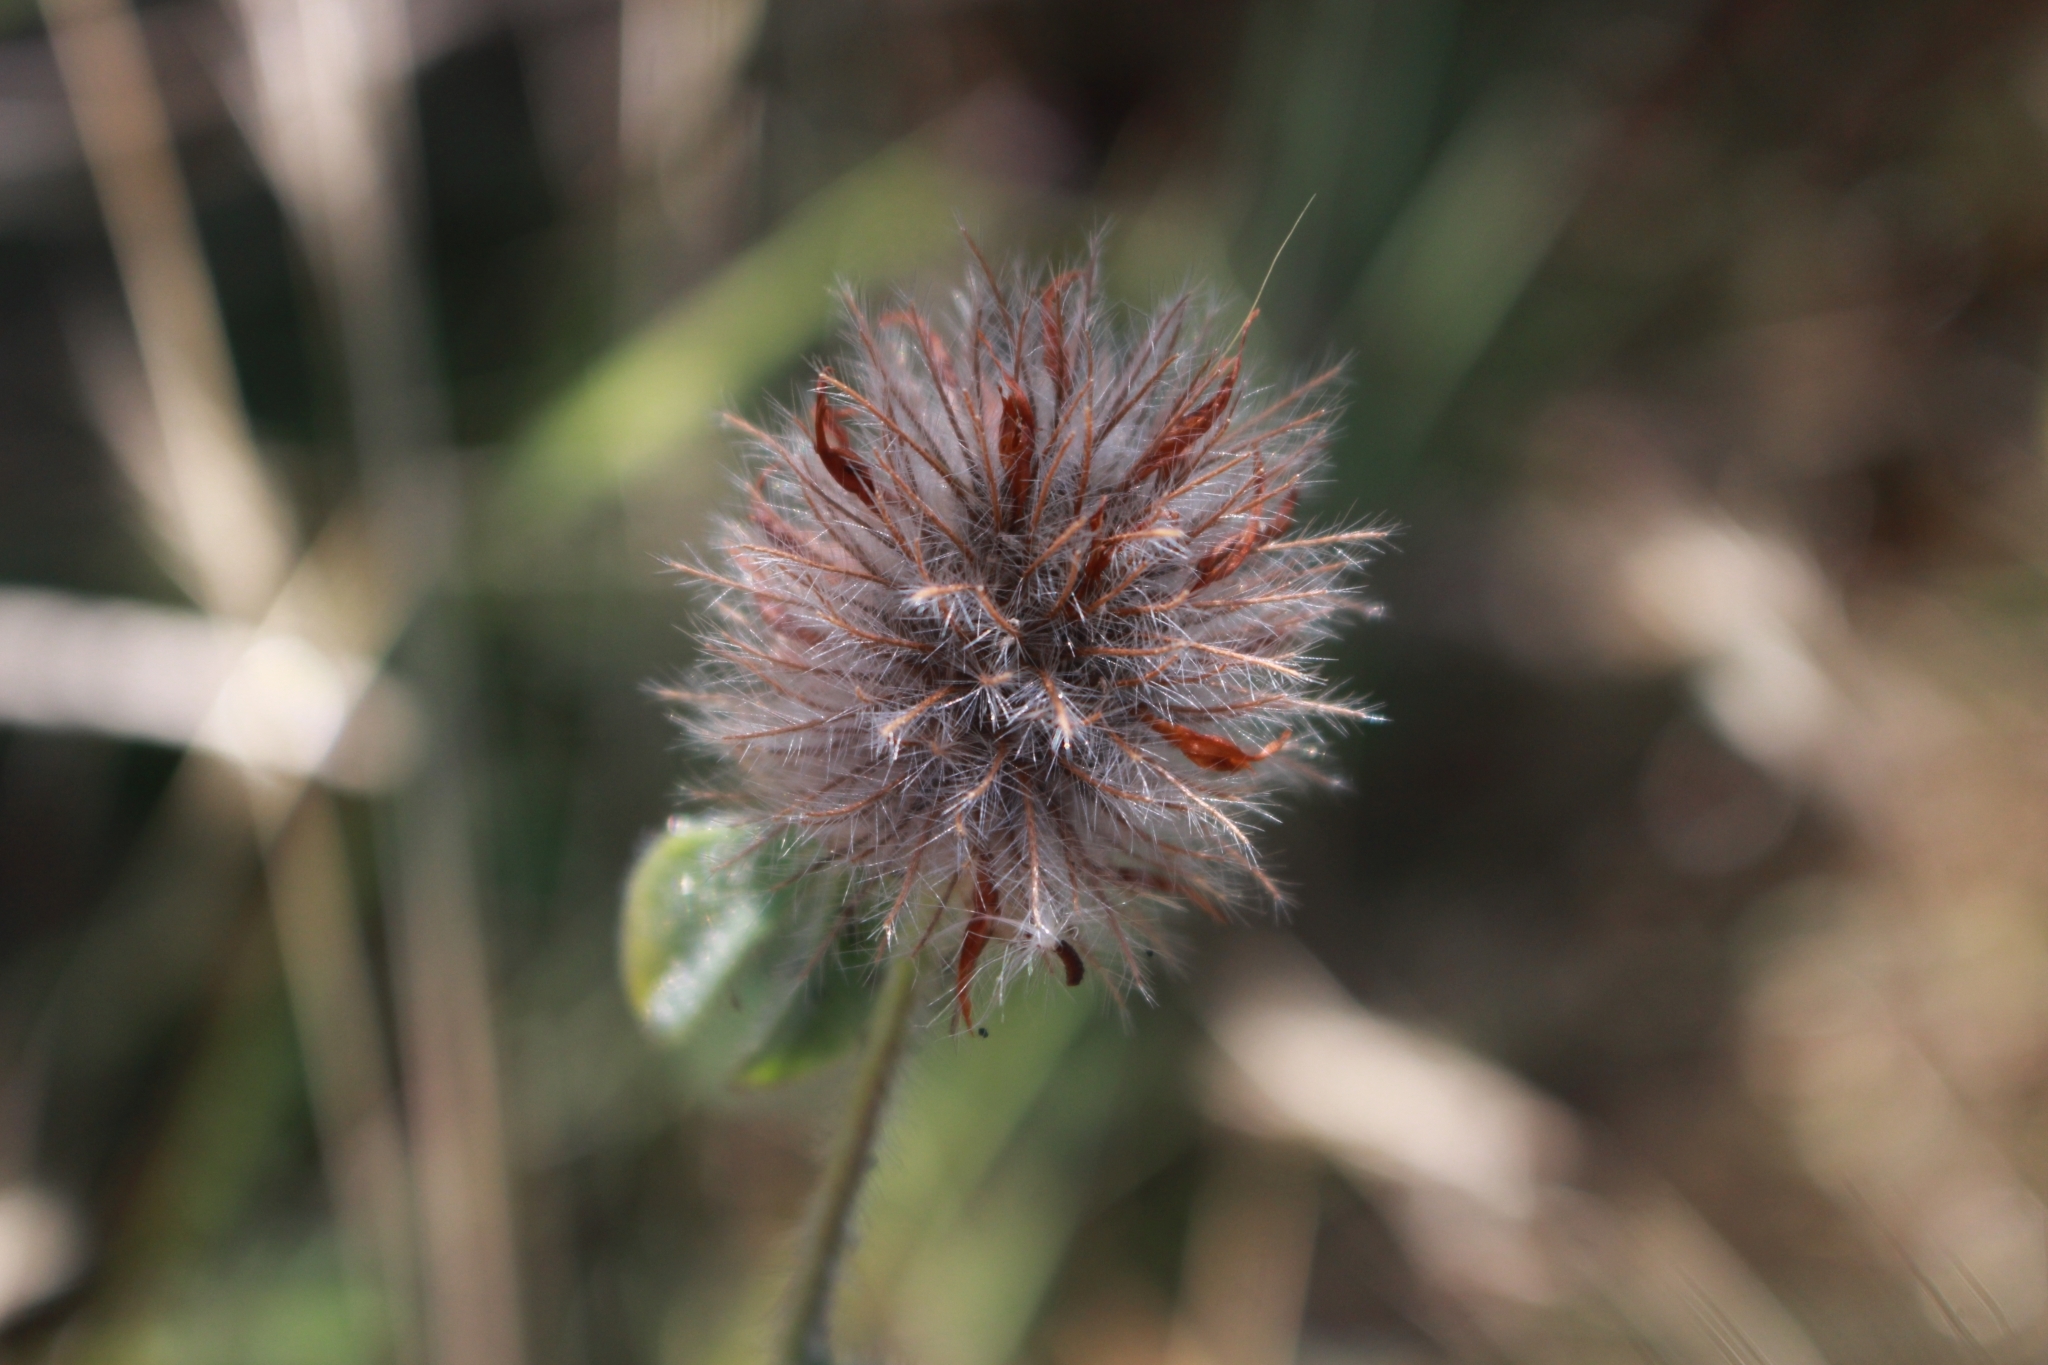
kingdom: Plantae
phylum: Tracheophyta
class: Magnoliopsida
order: Fabales
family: Fabaceae
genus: Trifolium
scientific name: Trifolium hirtum
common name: Rose clover
